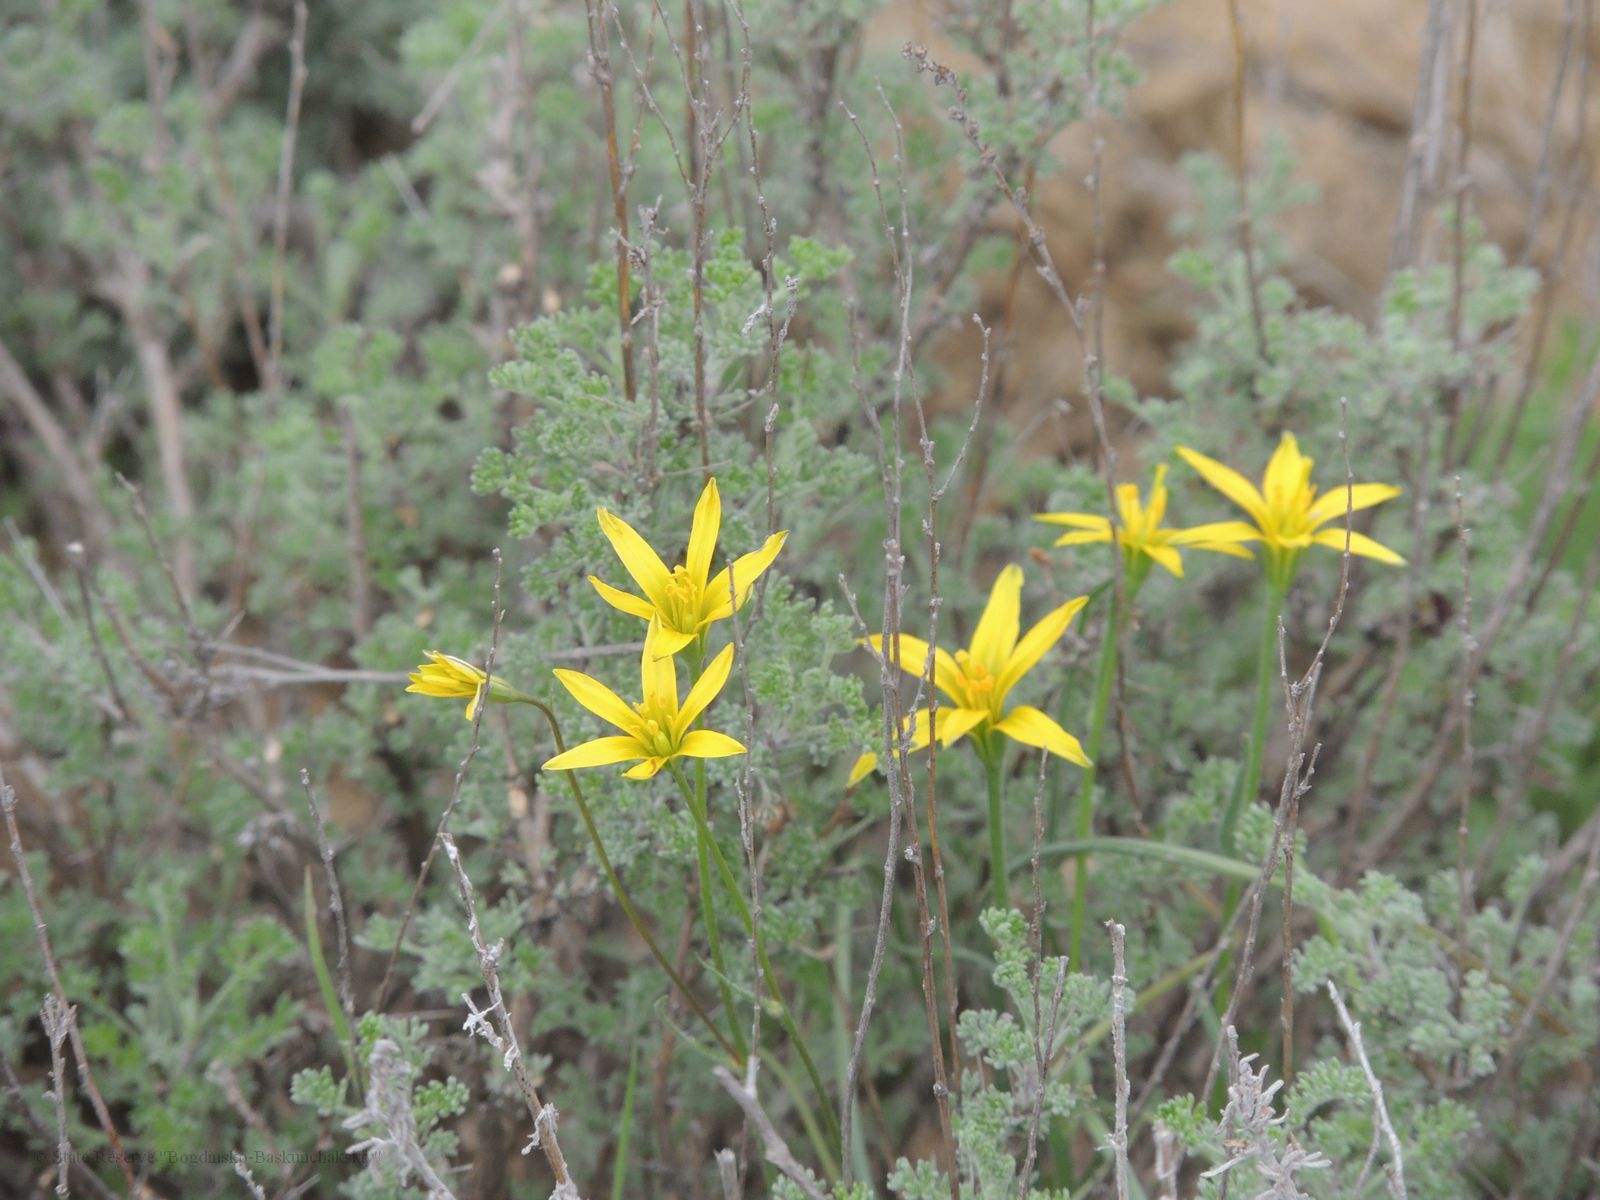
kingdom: Plantae
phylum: Tracheophyta
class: Liliopsida
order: Liliales
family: Liliaceae
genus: Gagea
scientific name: Gagea bulbifera
